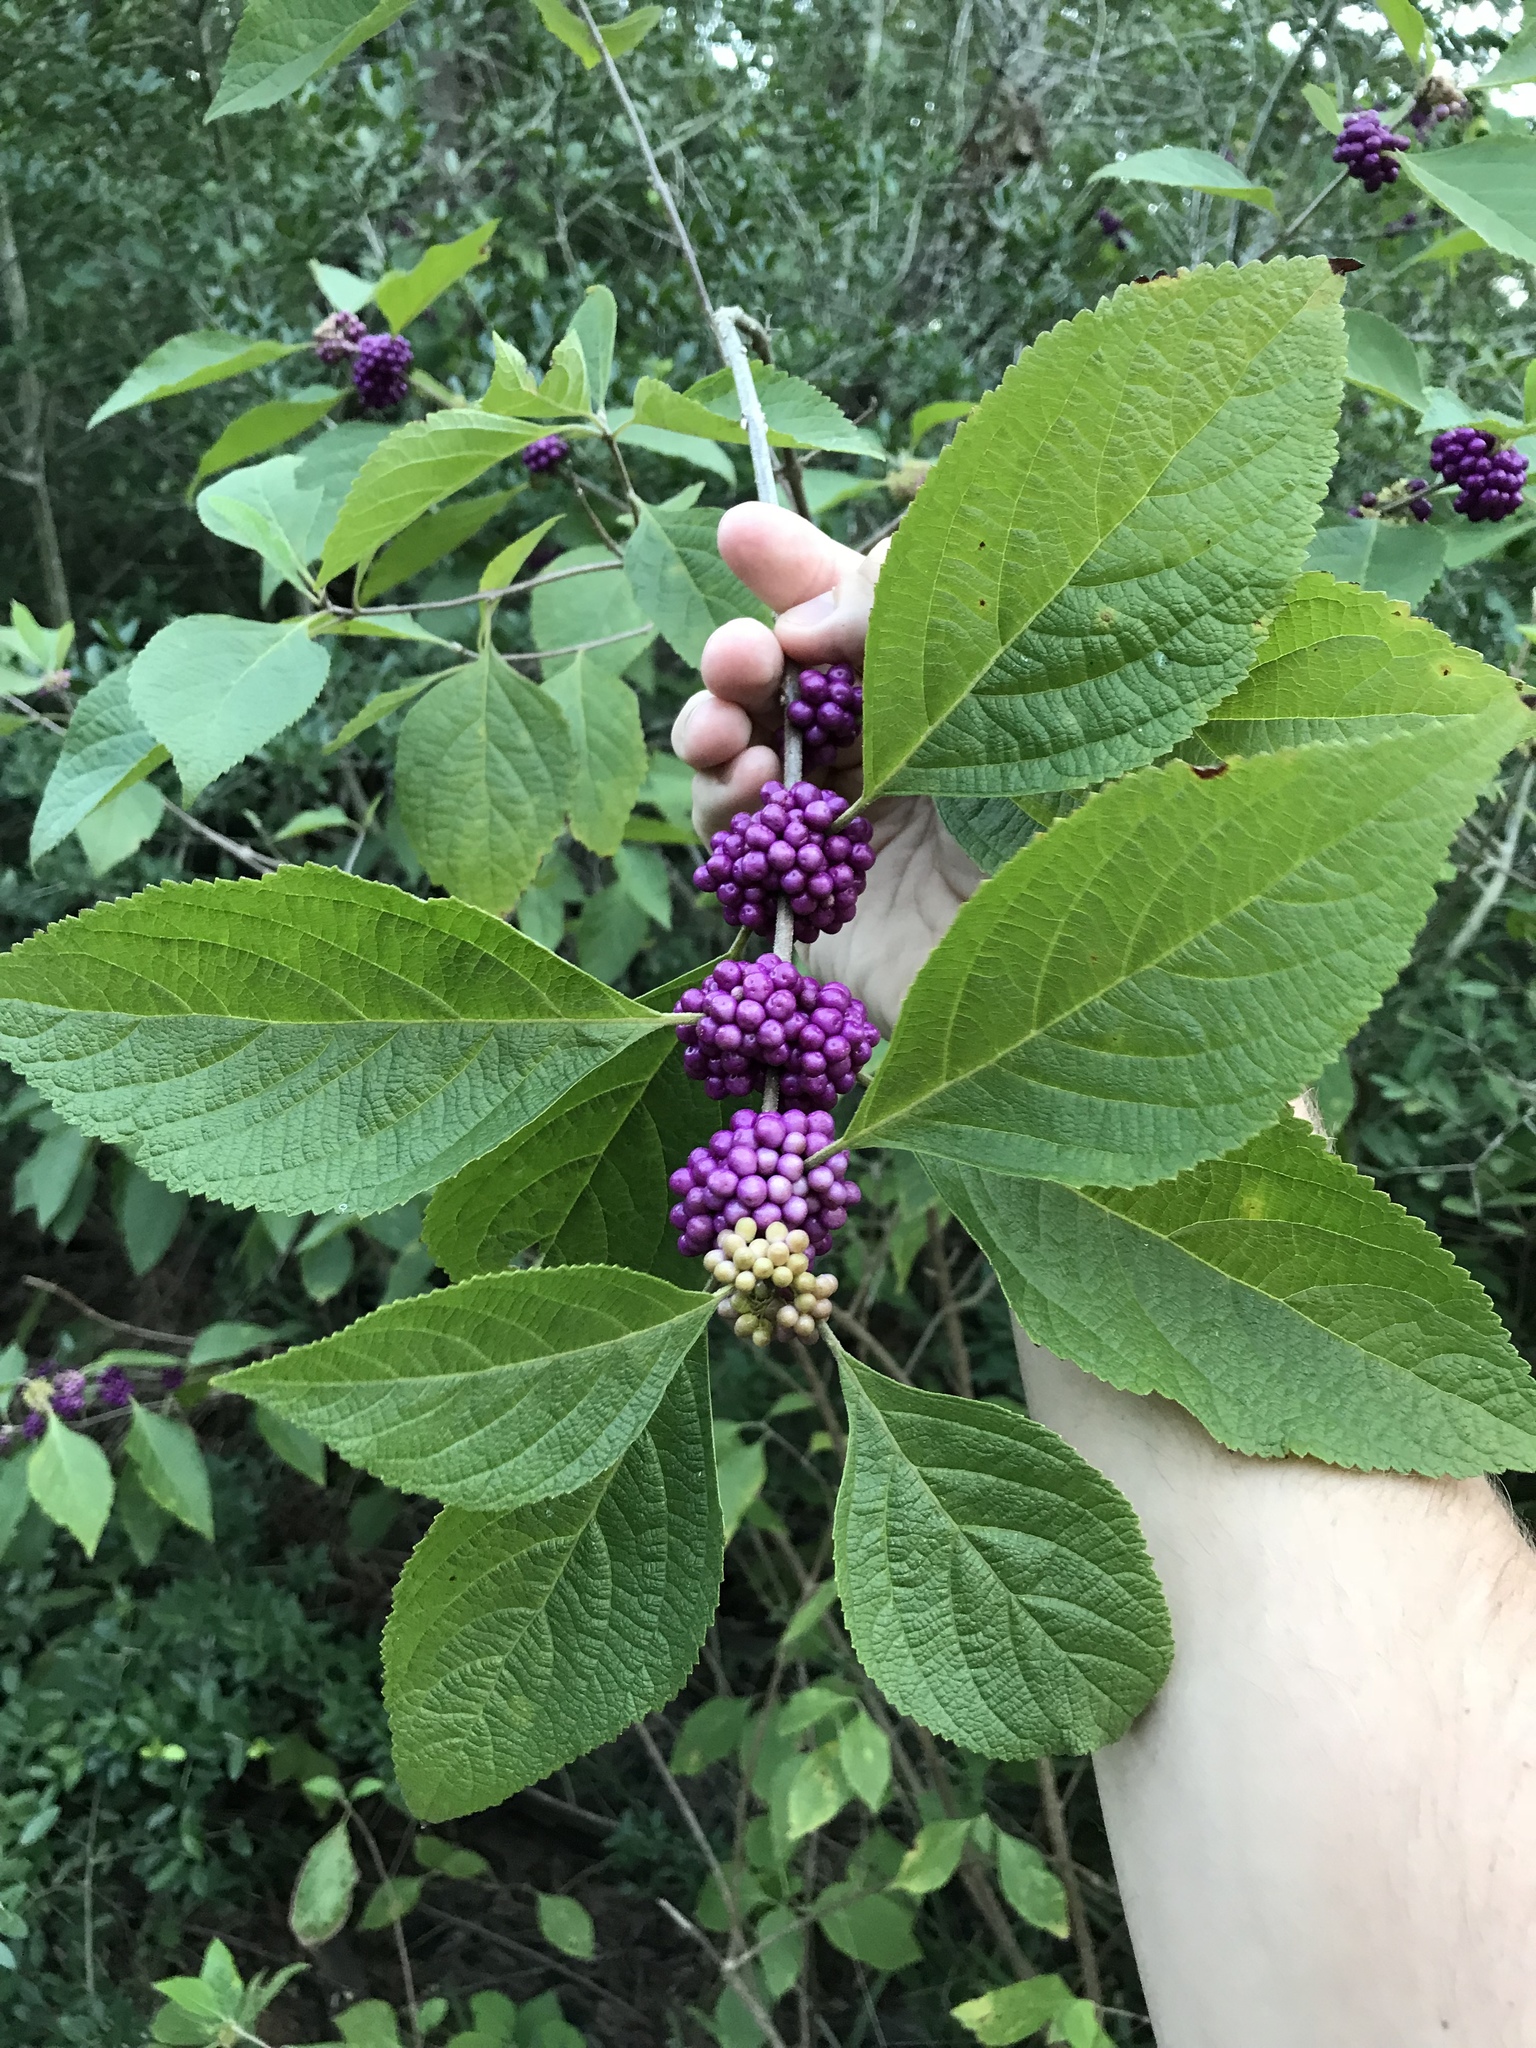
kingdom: Plantae
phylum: Tracheophyta
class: Magnoliopsida
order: Lamiales
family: Lamiaceae
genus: Callicarpa
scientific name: Callicarpa americana
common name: American beautyberry
